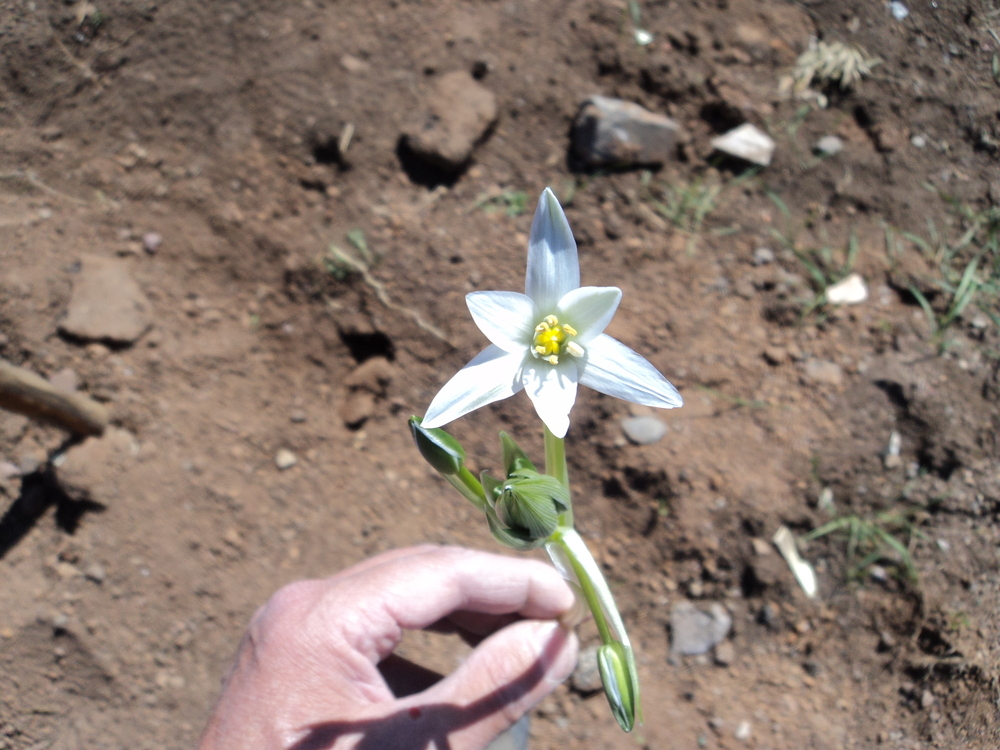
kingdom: Plantae
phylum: Tracheophyta
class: Liliopsida
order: Asparagales
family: Asparagaceae
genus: Ornithogalum
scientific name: Ornithogalum divergens
